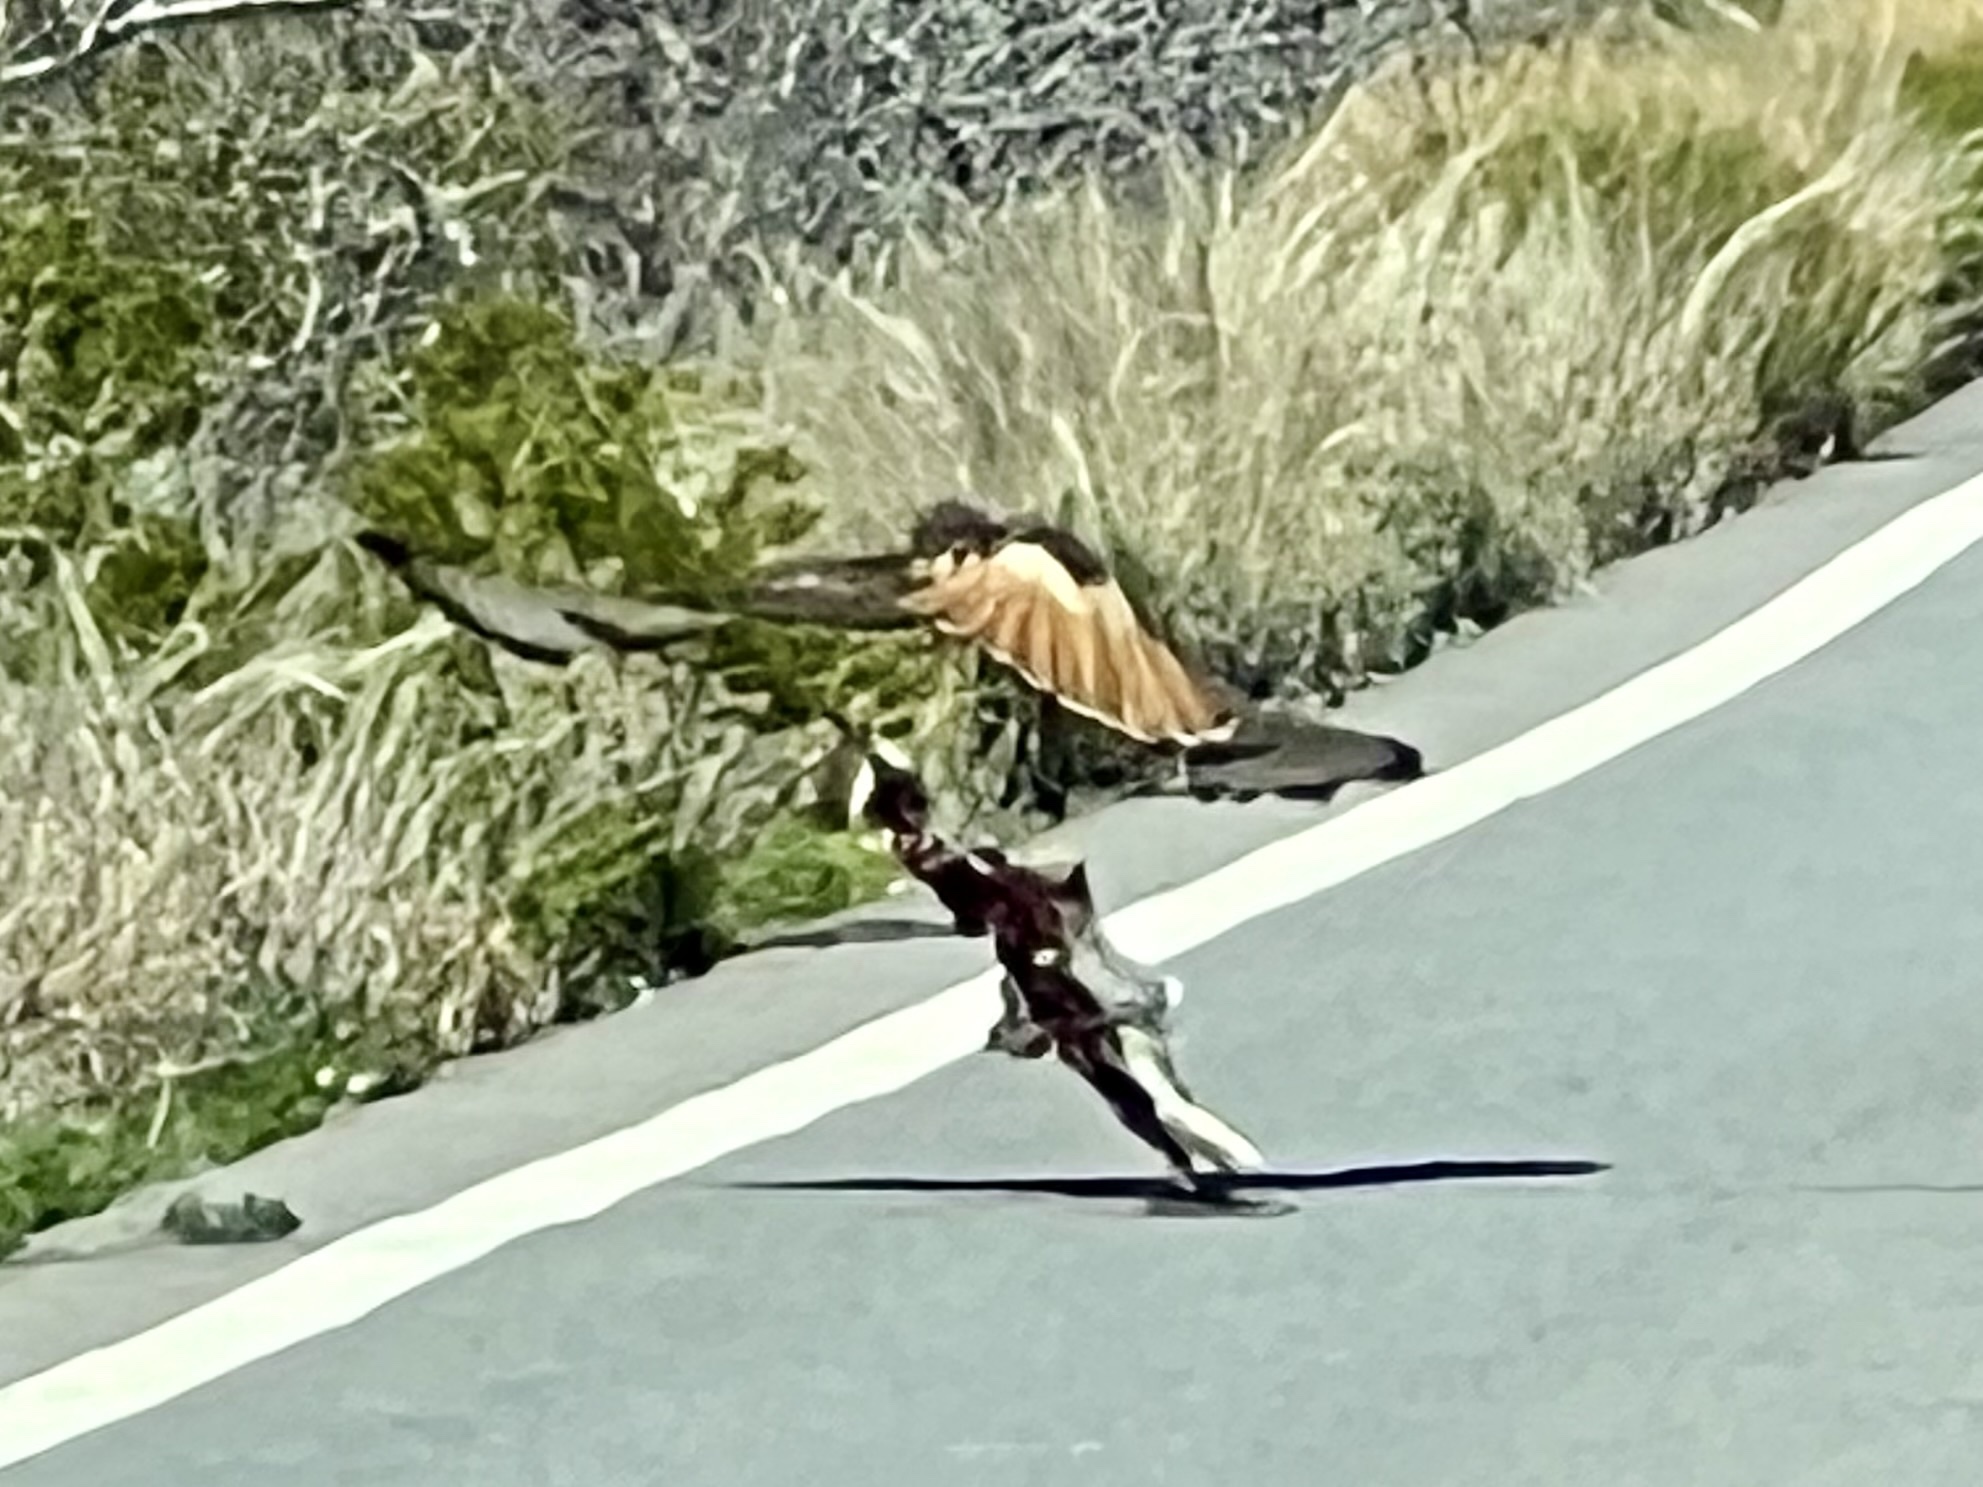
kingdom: Animalia
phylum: Chordata
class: Aves
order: Accipitriformes
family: Accipitridae
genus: Buteo
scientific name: Buteo jamaicensis
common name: Red-tailed hawk
